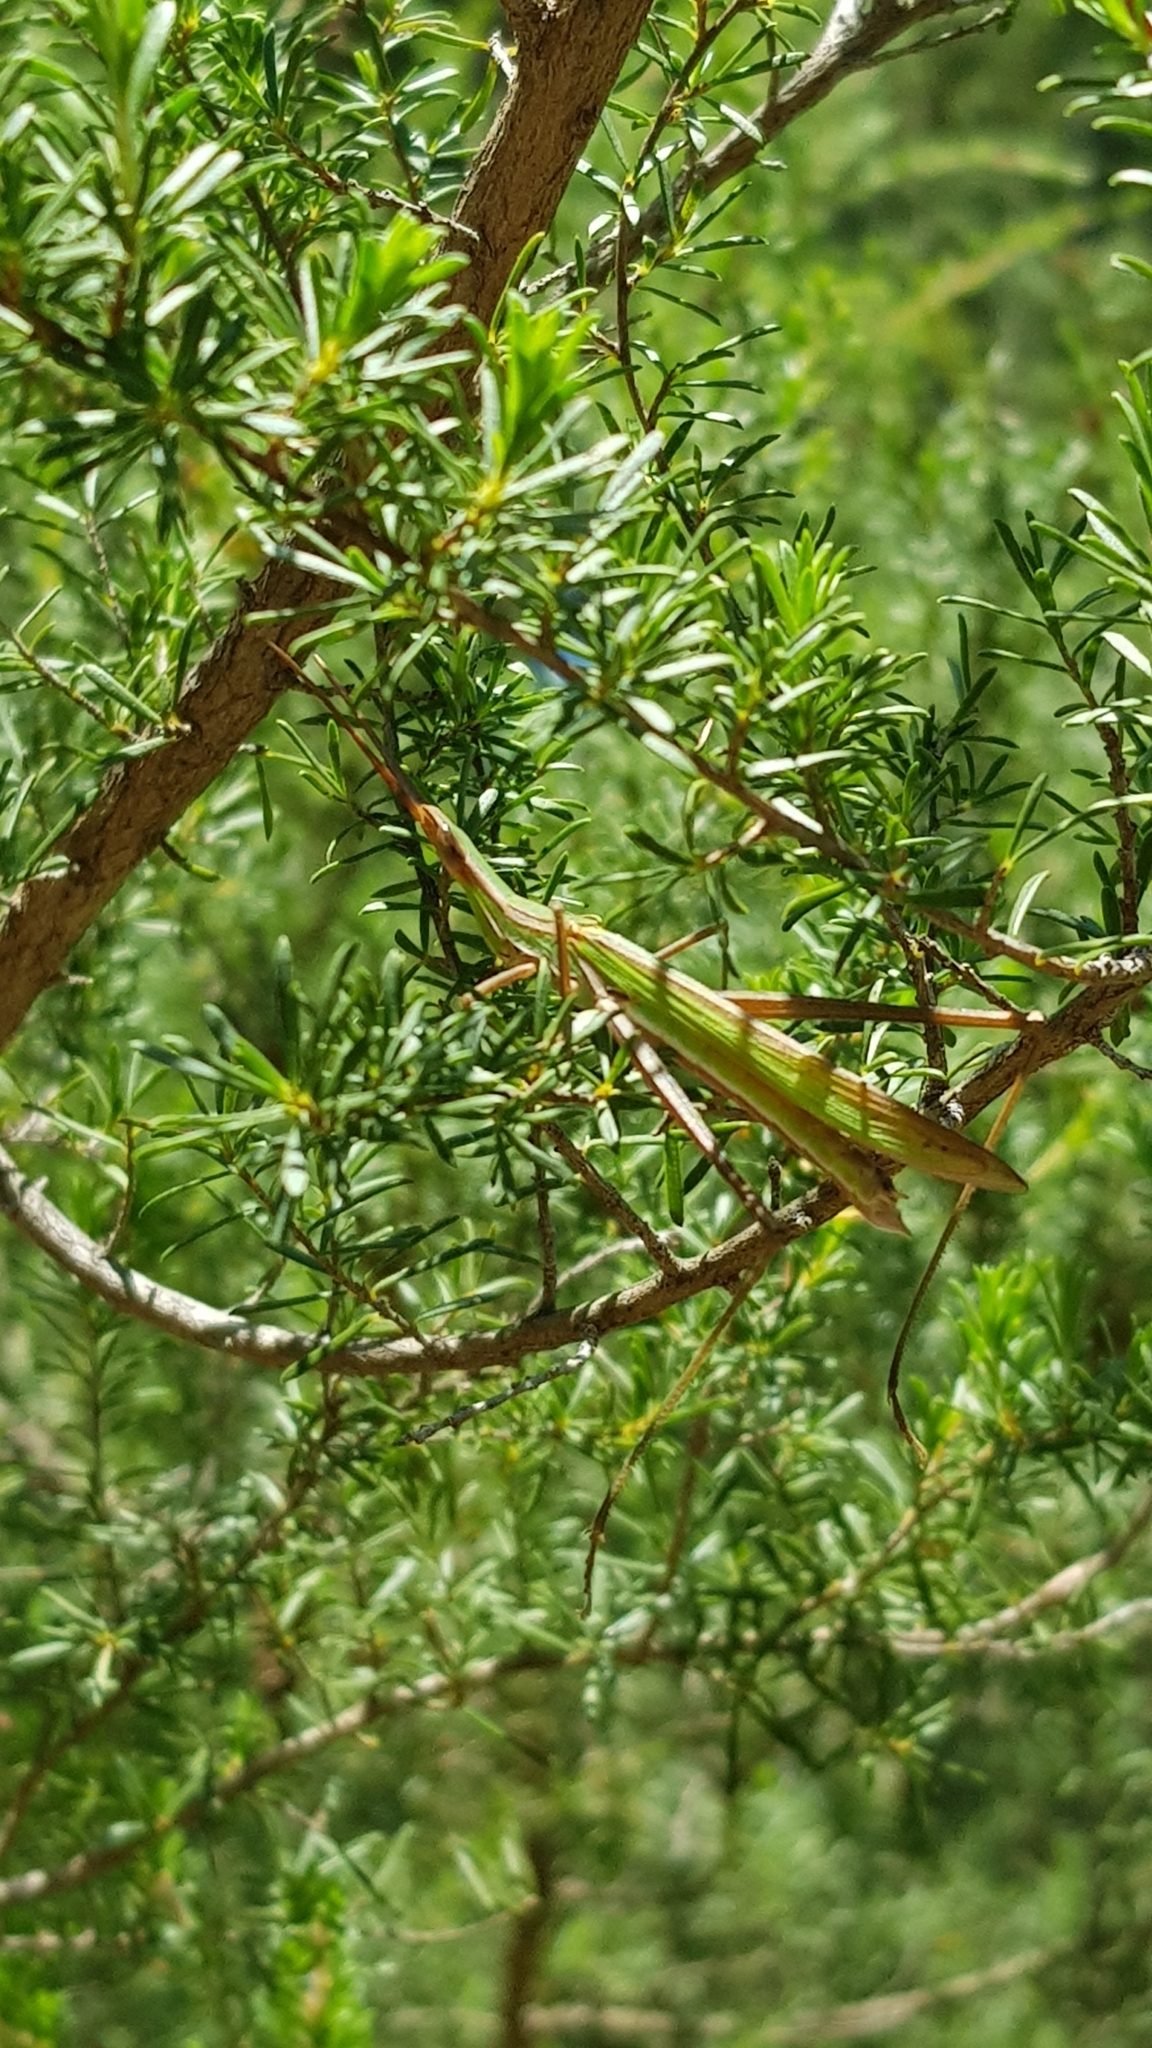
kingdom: Animalia
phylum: Arthropoda
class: Insecta
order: Orthoptera
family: Acrididae
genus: Acrida
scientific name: Acrida conica
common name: Giant green slantface
